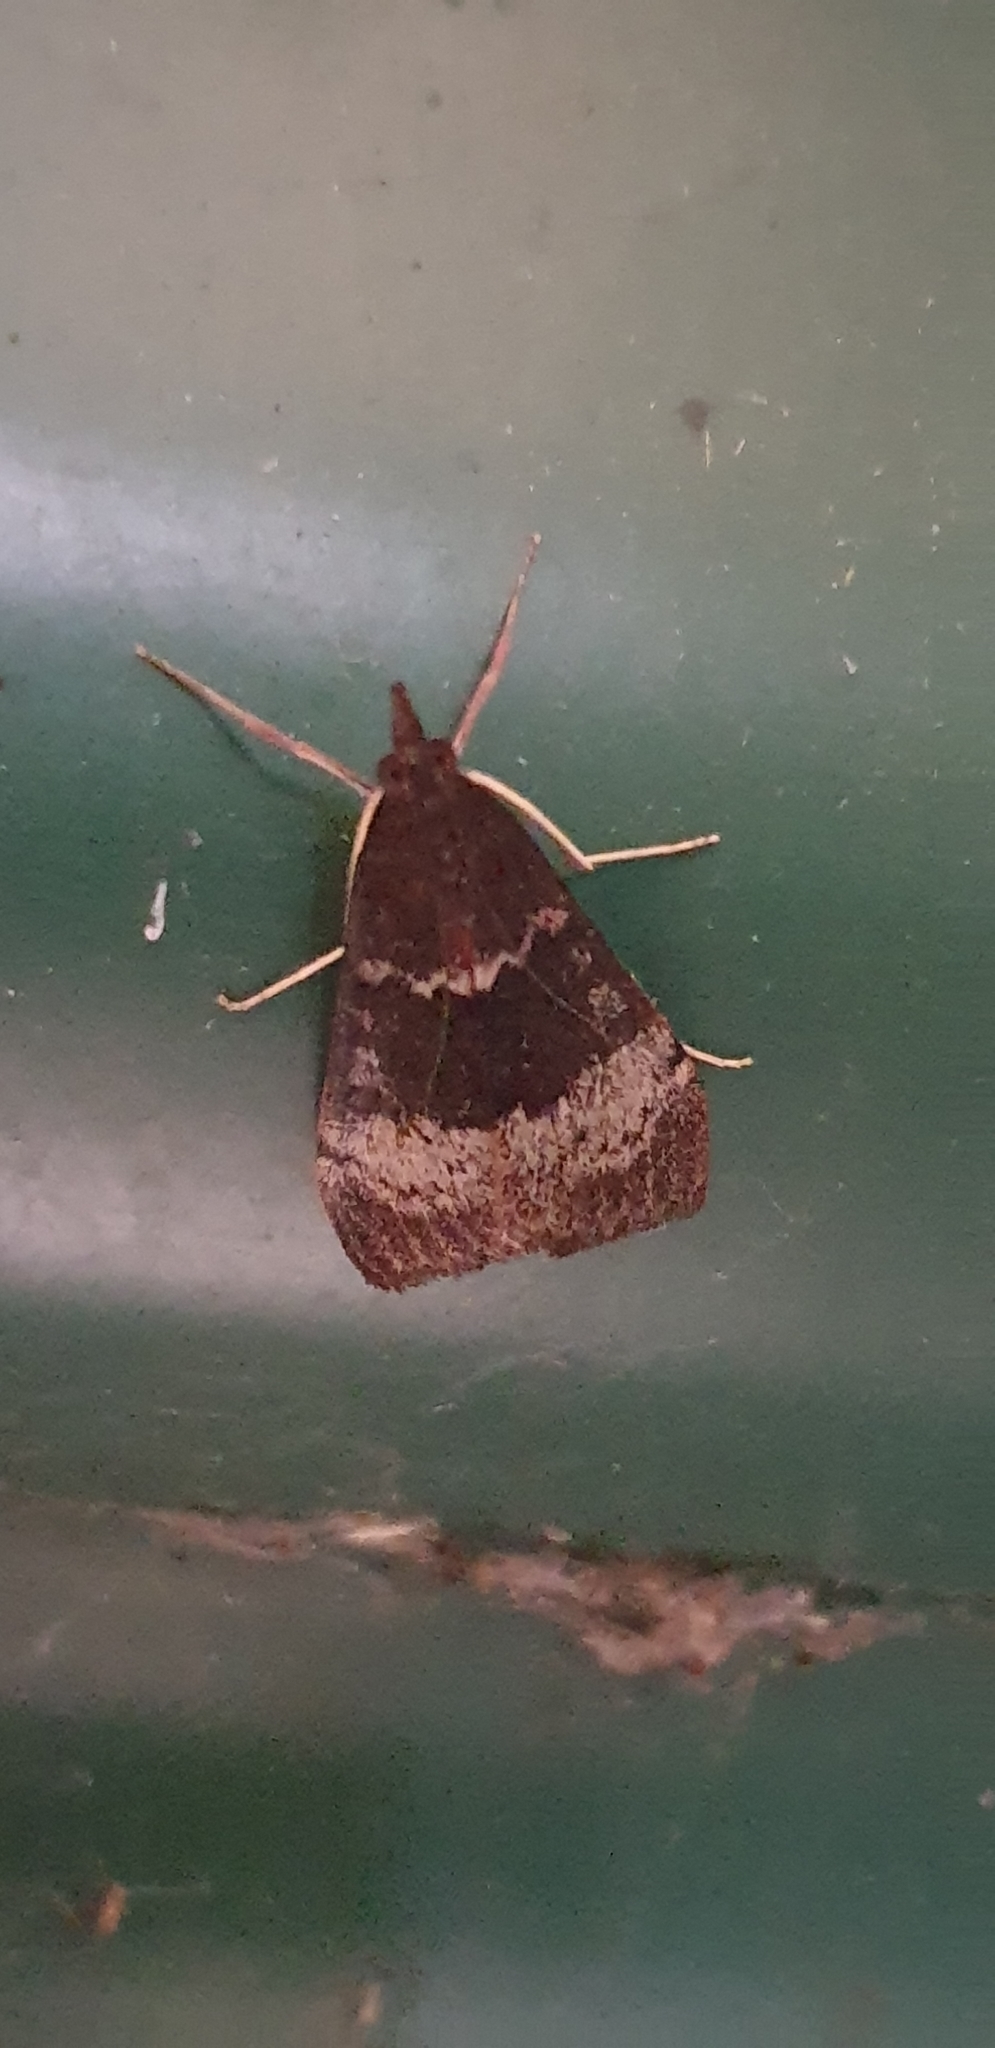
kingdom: Animalia
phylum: Arthropoda
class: Insecta
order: Lepidoptera
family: Crambidae
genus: Uresiphita
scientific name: Uresiphita ornithopteralis
